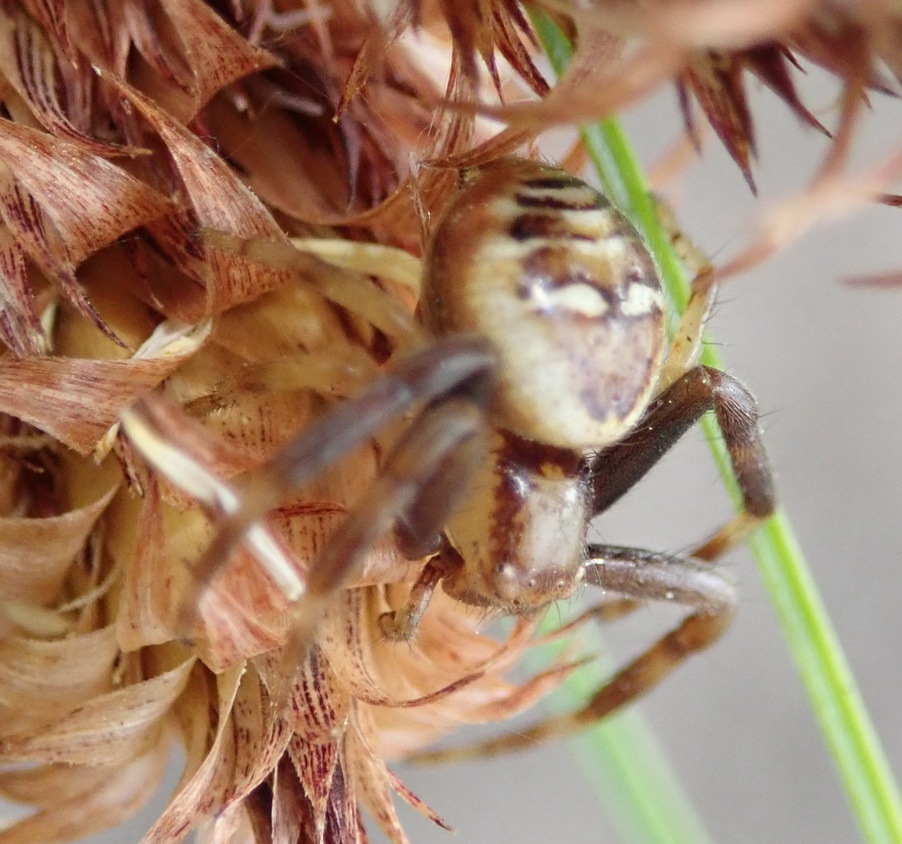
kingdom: Animalia
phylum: Arthropoda
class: Arachnida
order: Araneae
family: Thomisidae
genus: Synema
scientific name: Synema marlothi
